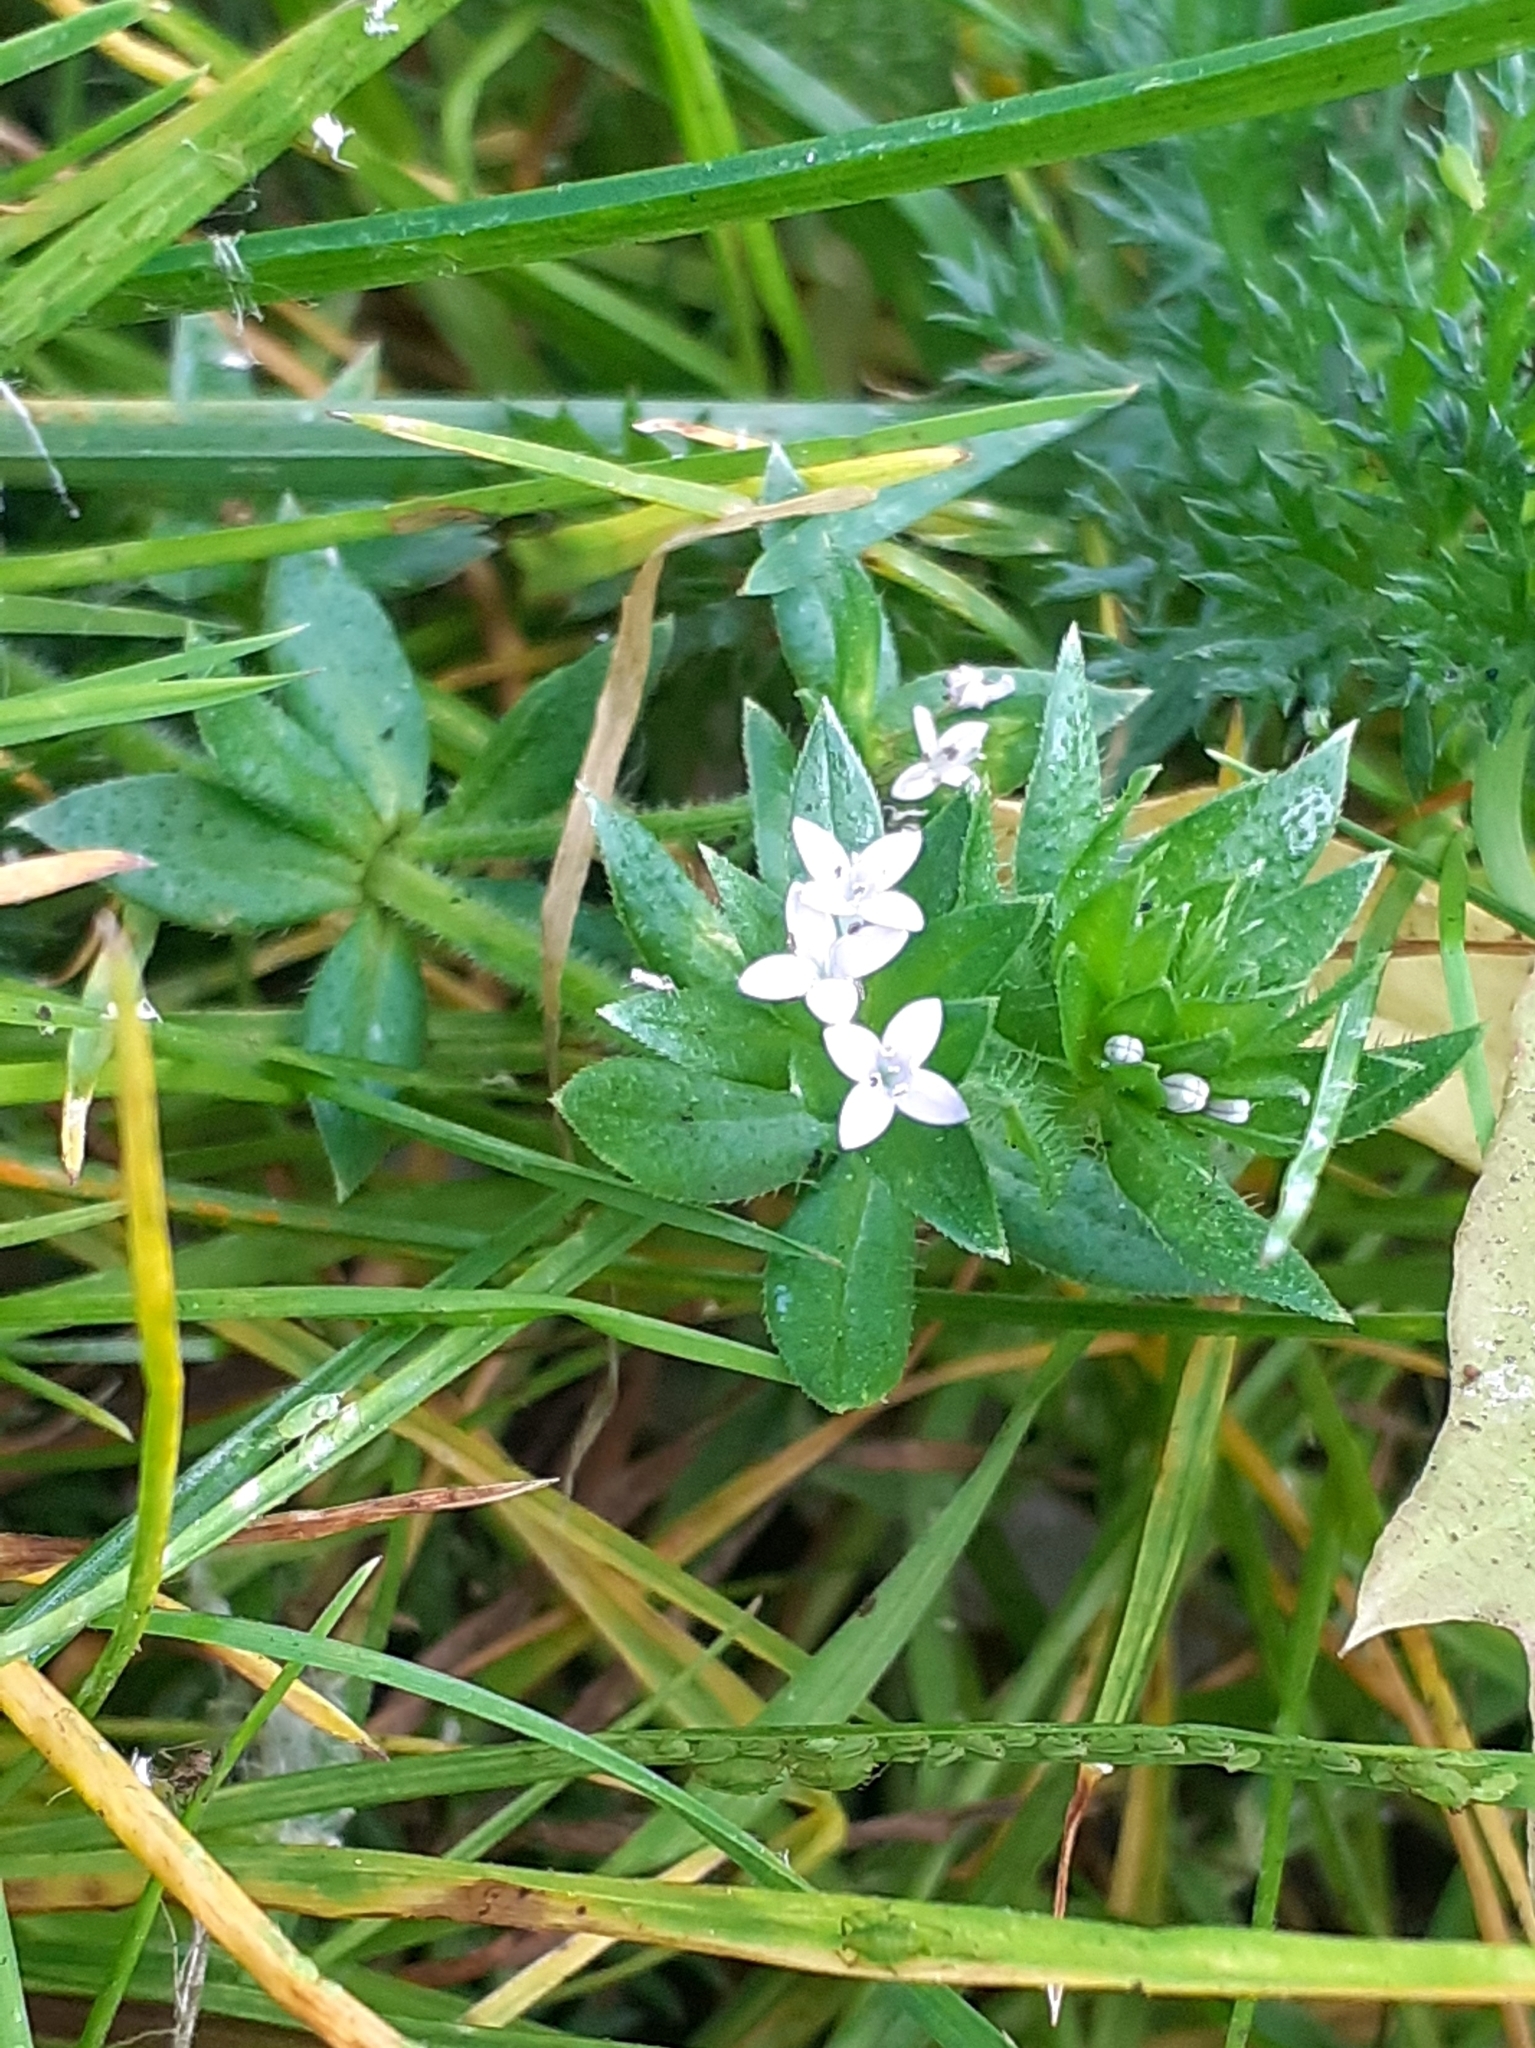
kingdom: Plantae
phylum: Tracheophyta
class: Magnoliopsida
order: Gentianales
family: Rubiaceae
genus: Sherardia
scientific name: Sherardia arvensis
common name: Field madder
